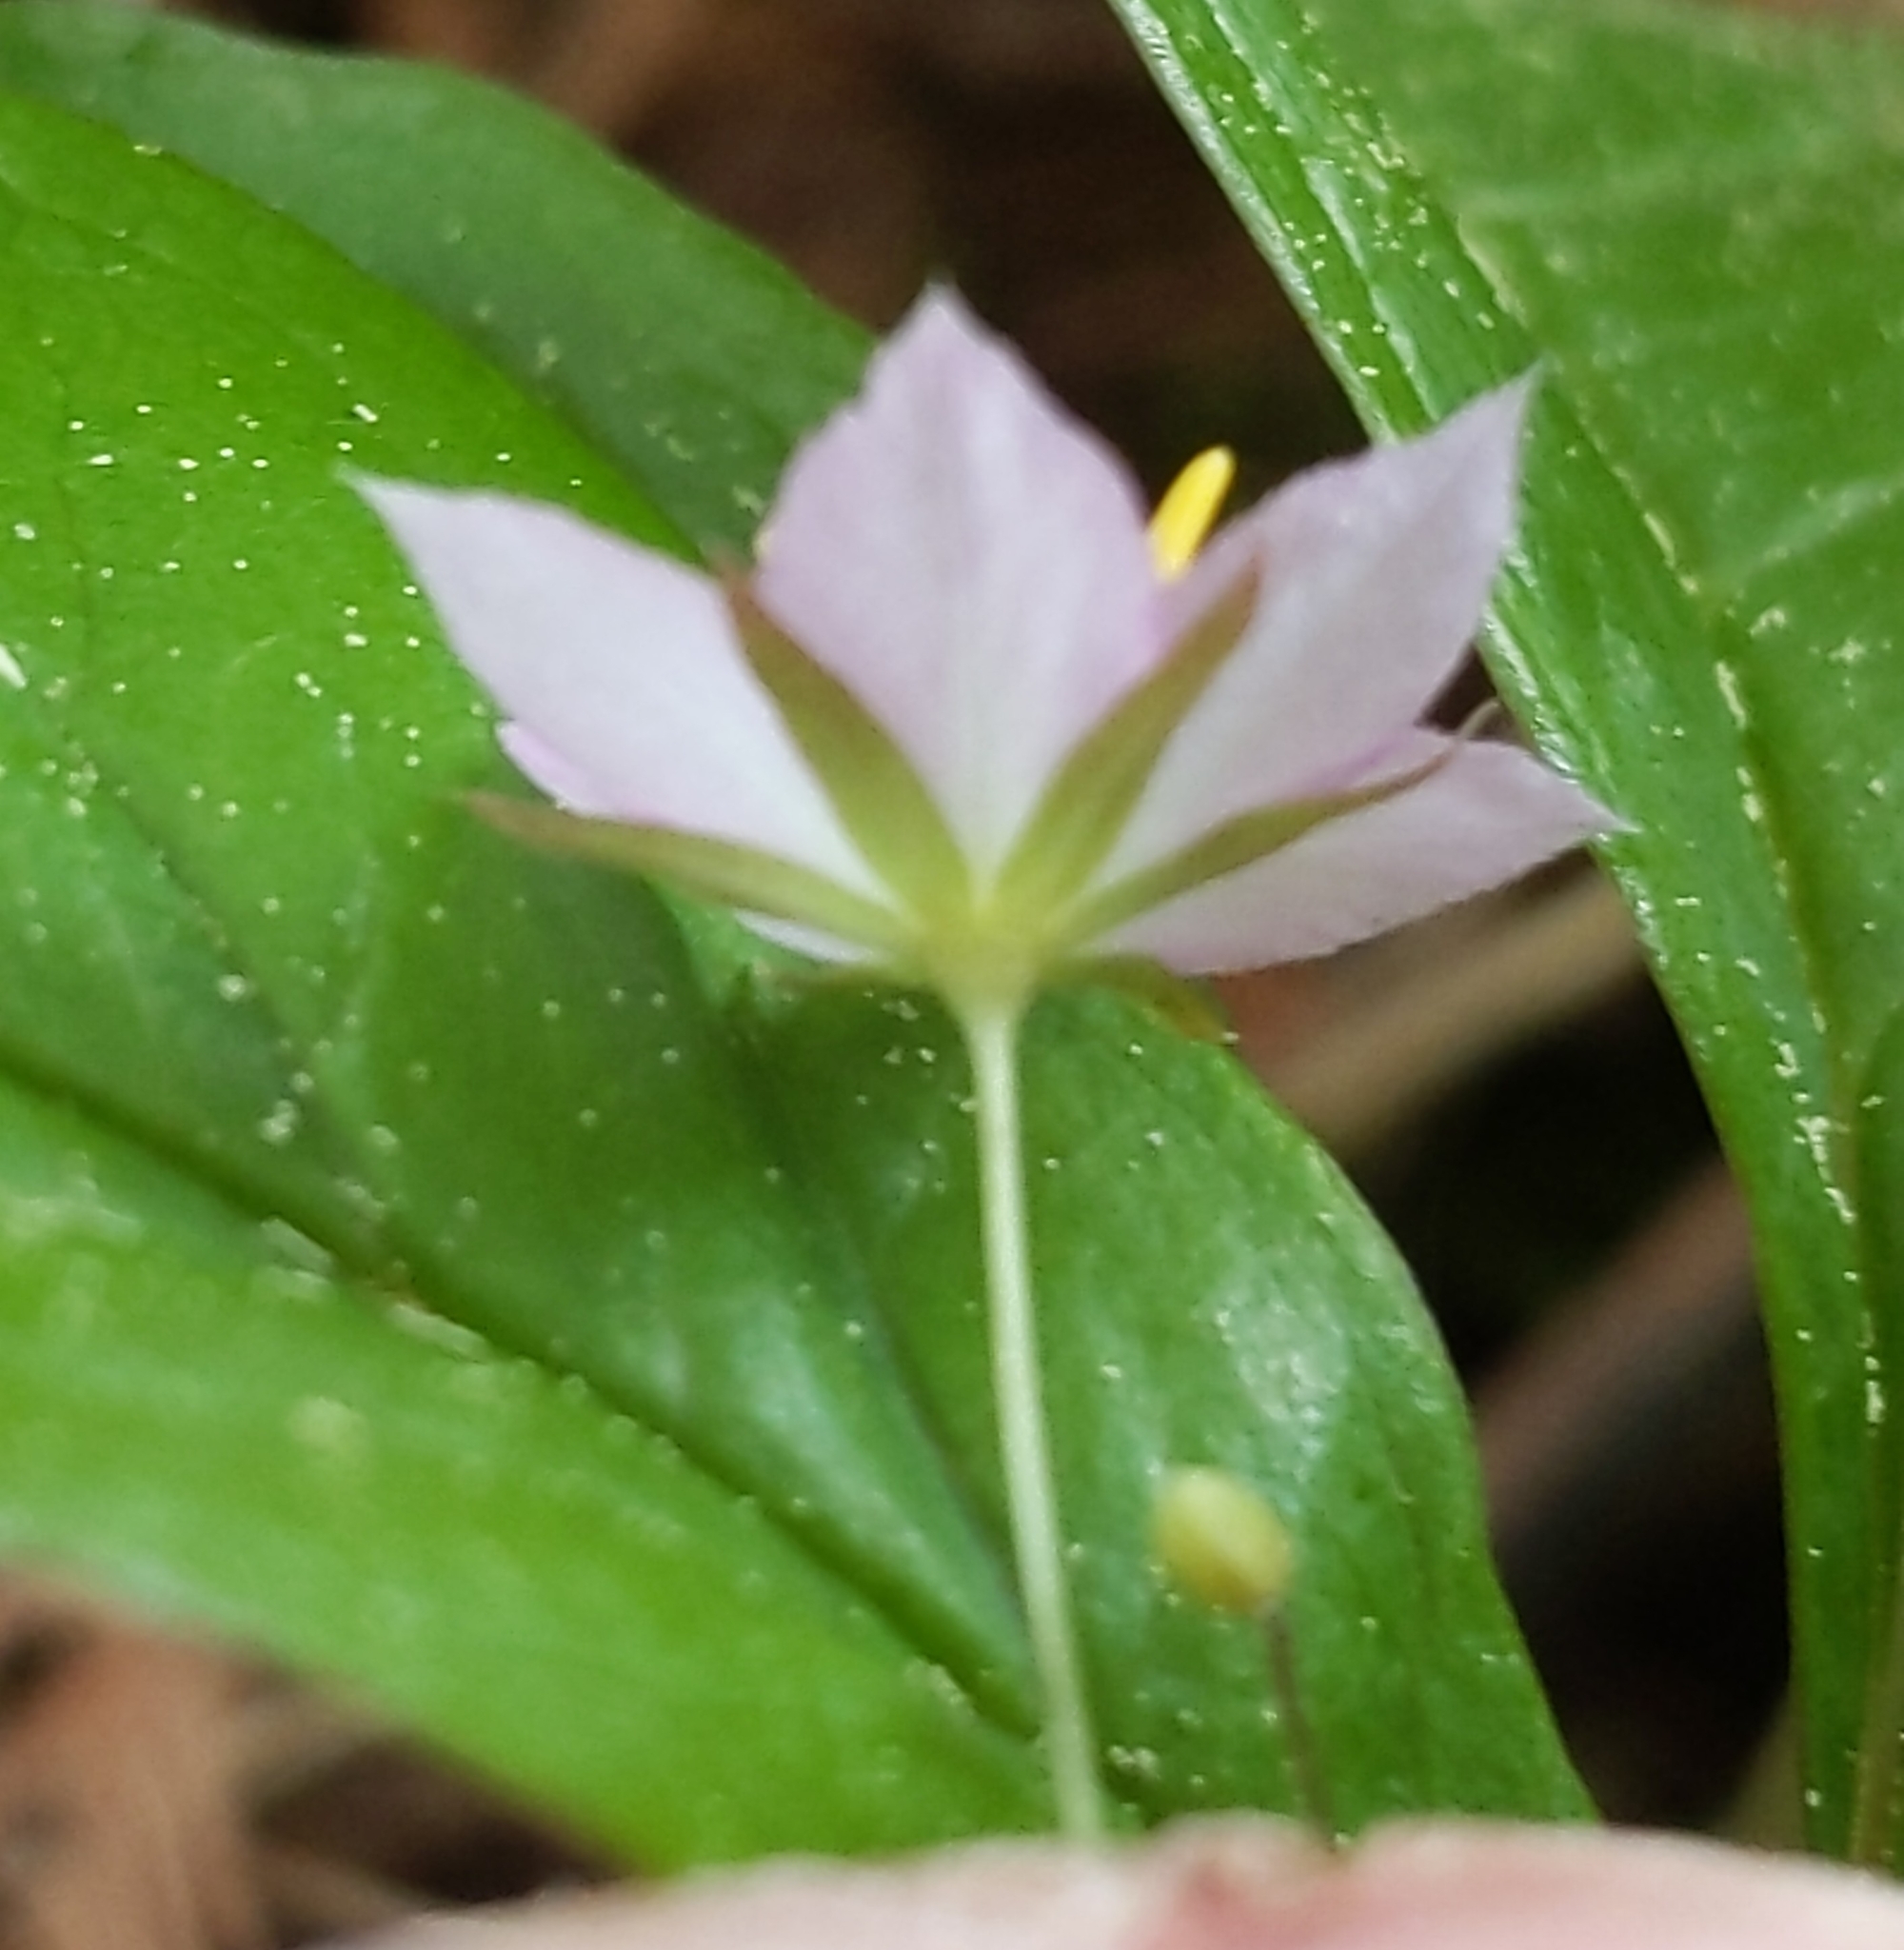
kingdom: Plantae
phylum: Tracheophyta
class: Magnoliopsida
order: Ericales
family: Primulaceae
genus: Lysimachia
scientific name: Lysimachia latifolia
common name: Pacific starflower
